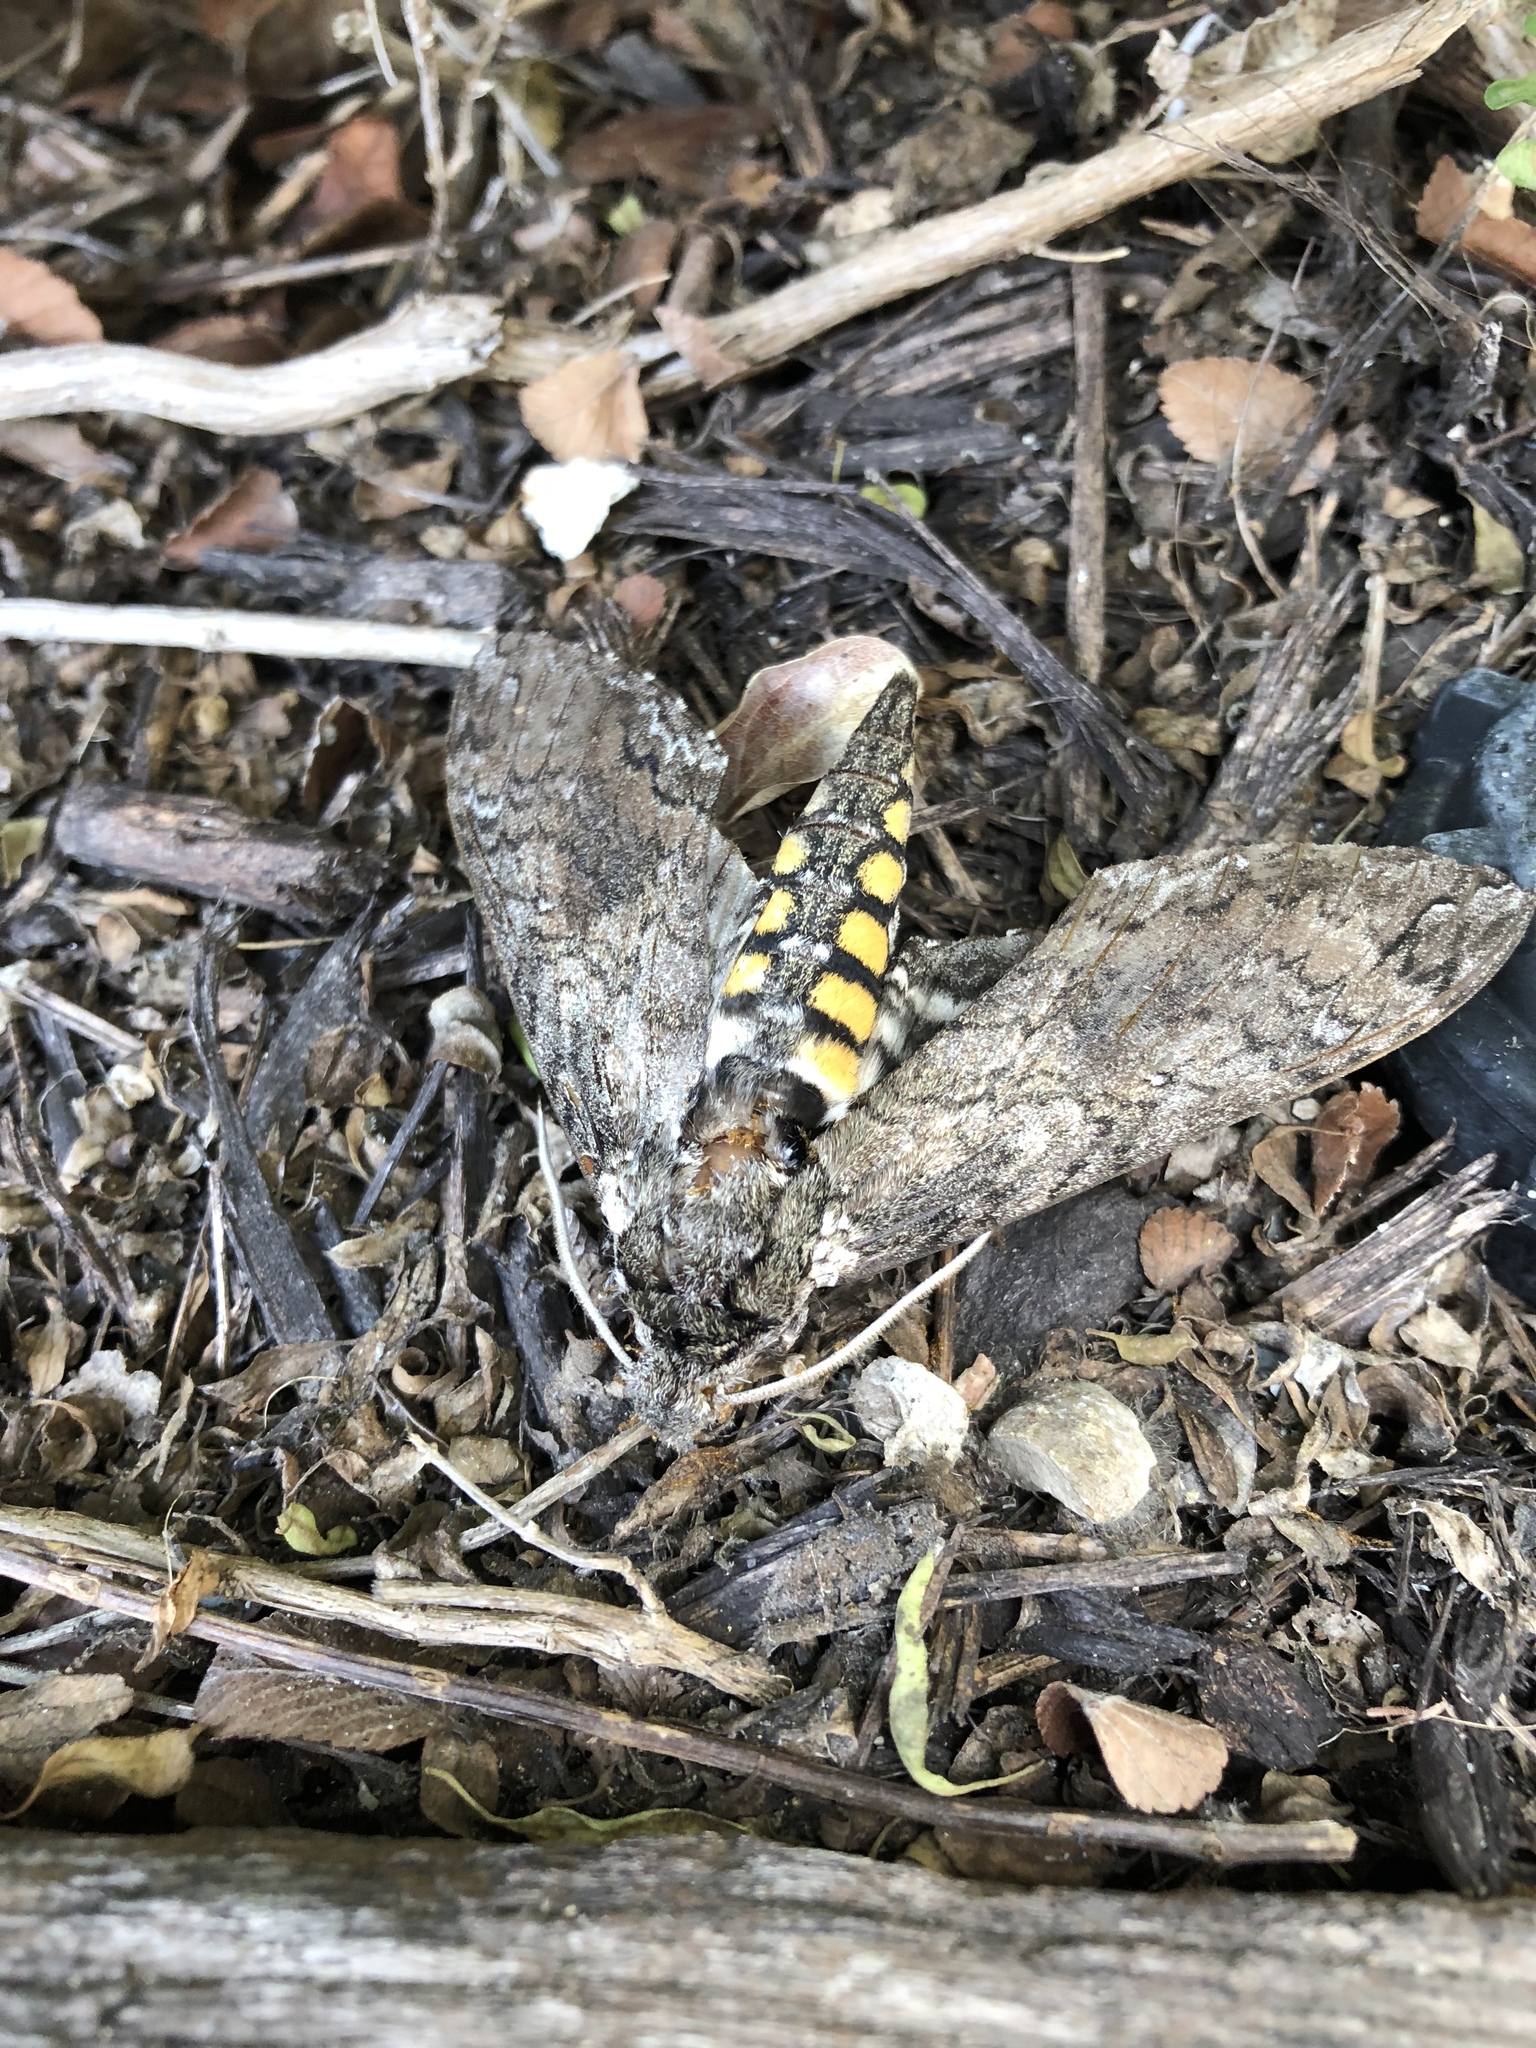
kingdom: Animalia
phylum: Arthropoda
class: Insecta
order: Lepidoptera
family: Sphingidae
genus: Manduca
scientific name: Manduca sexta
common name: Carolina sphinx
